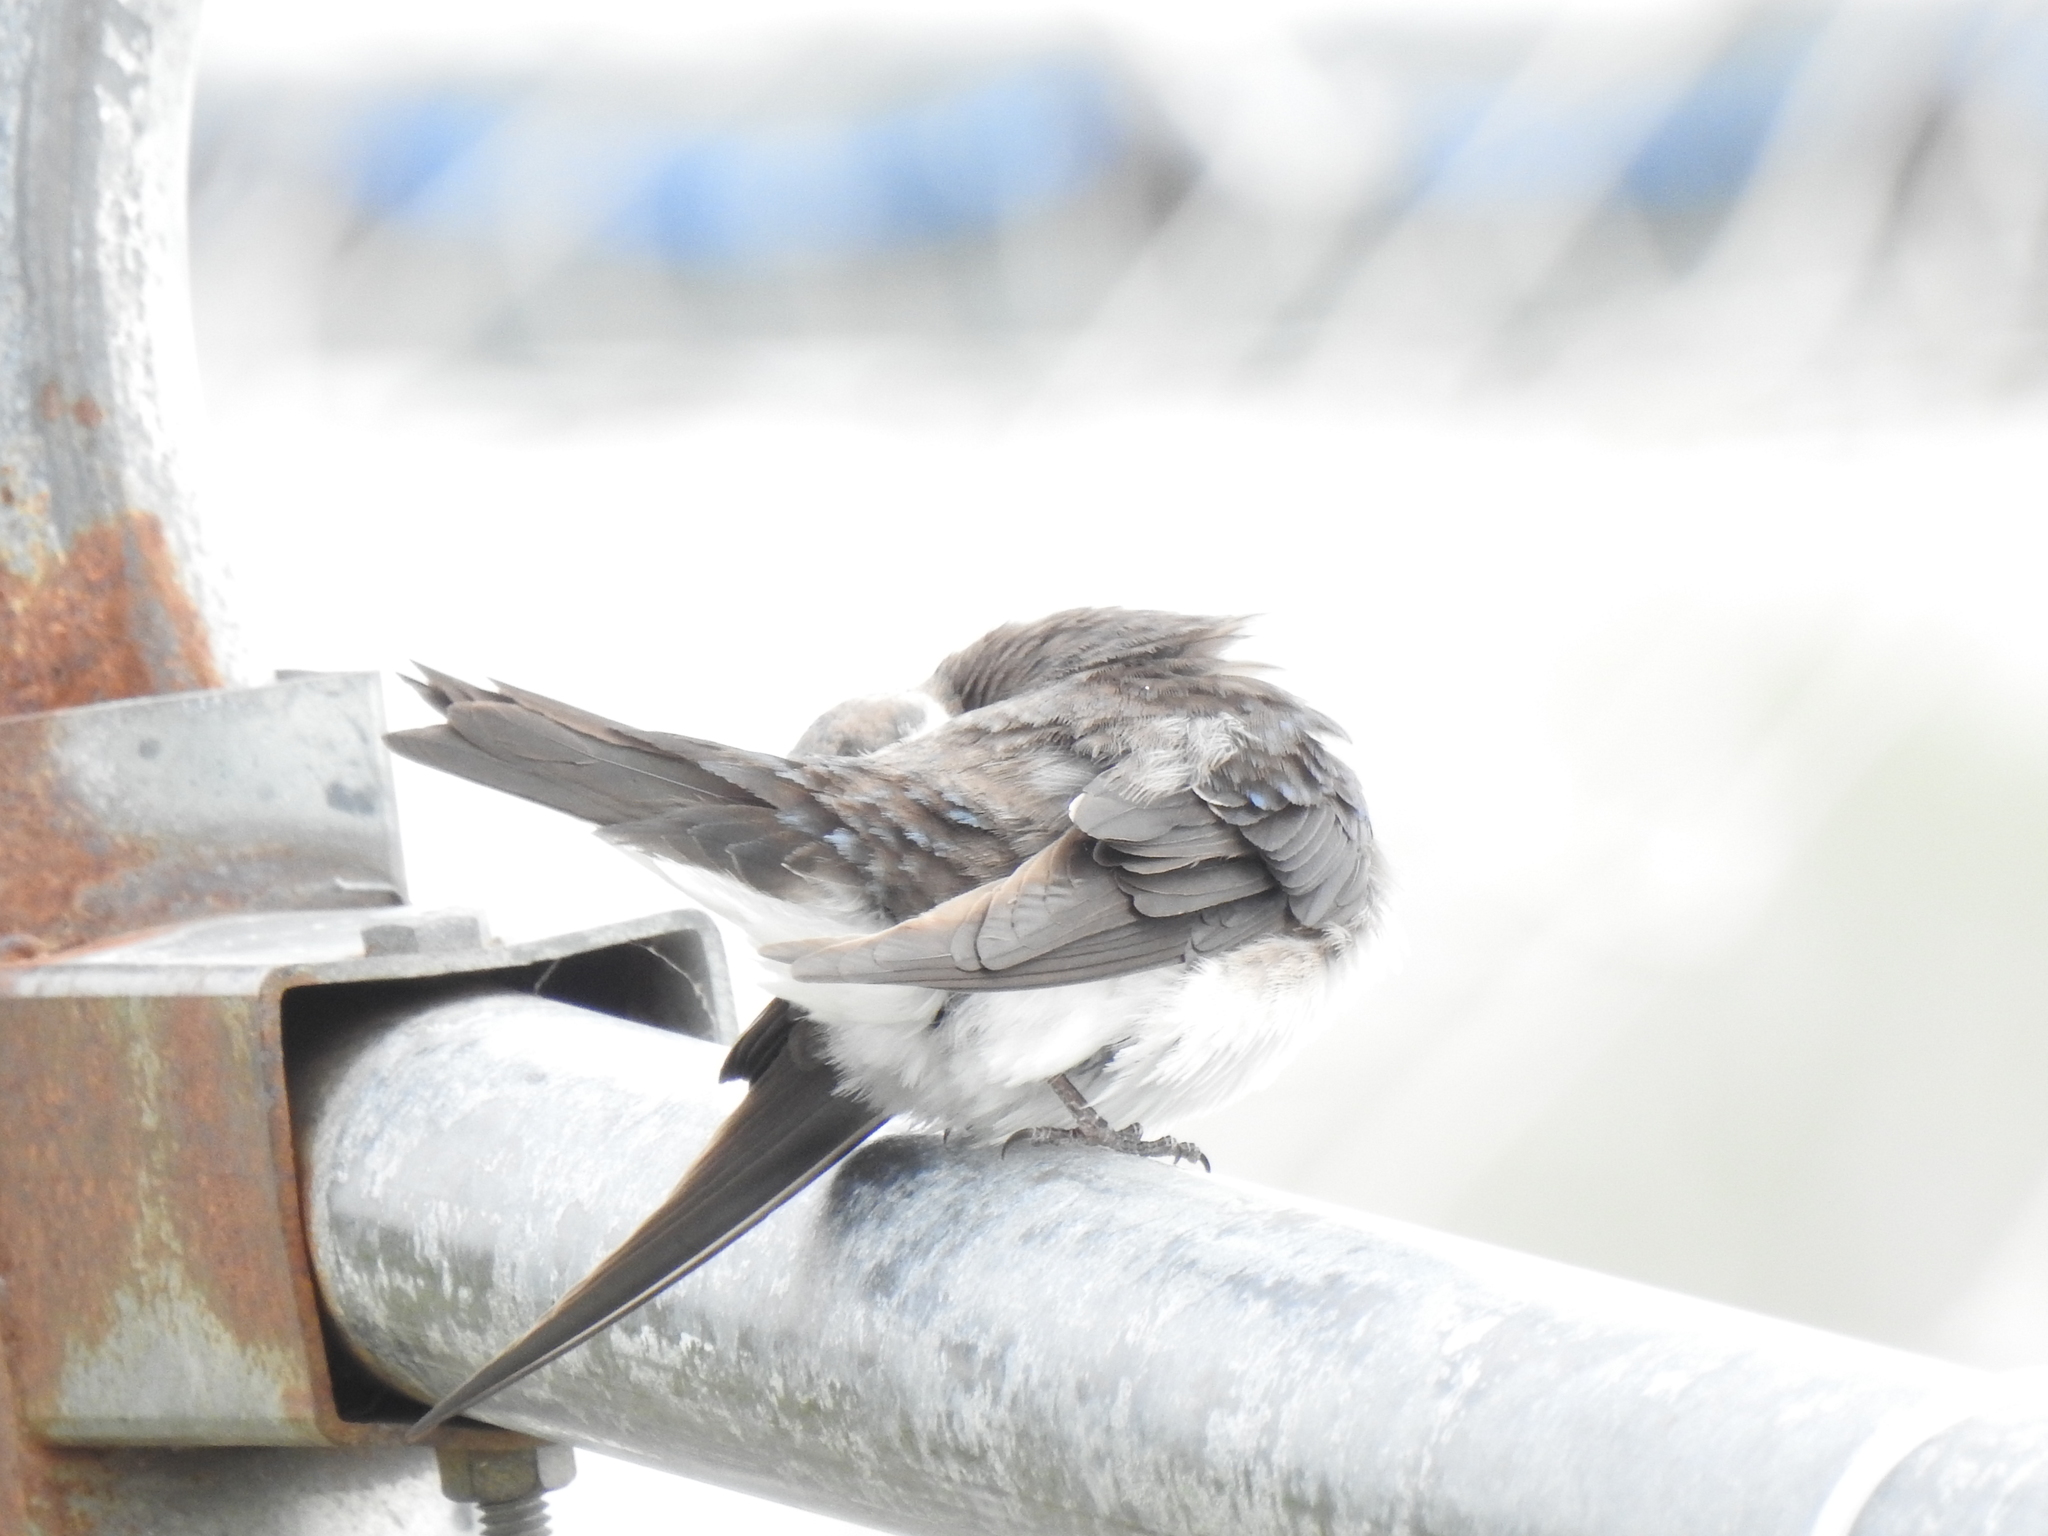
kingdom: Animalia
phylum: Chordata
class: Aves
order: Passeriformes
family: Hirundinidae
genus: Tachycineta
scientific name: Tachycineta bicolor
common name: Tree swallow
